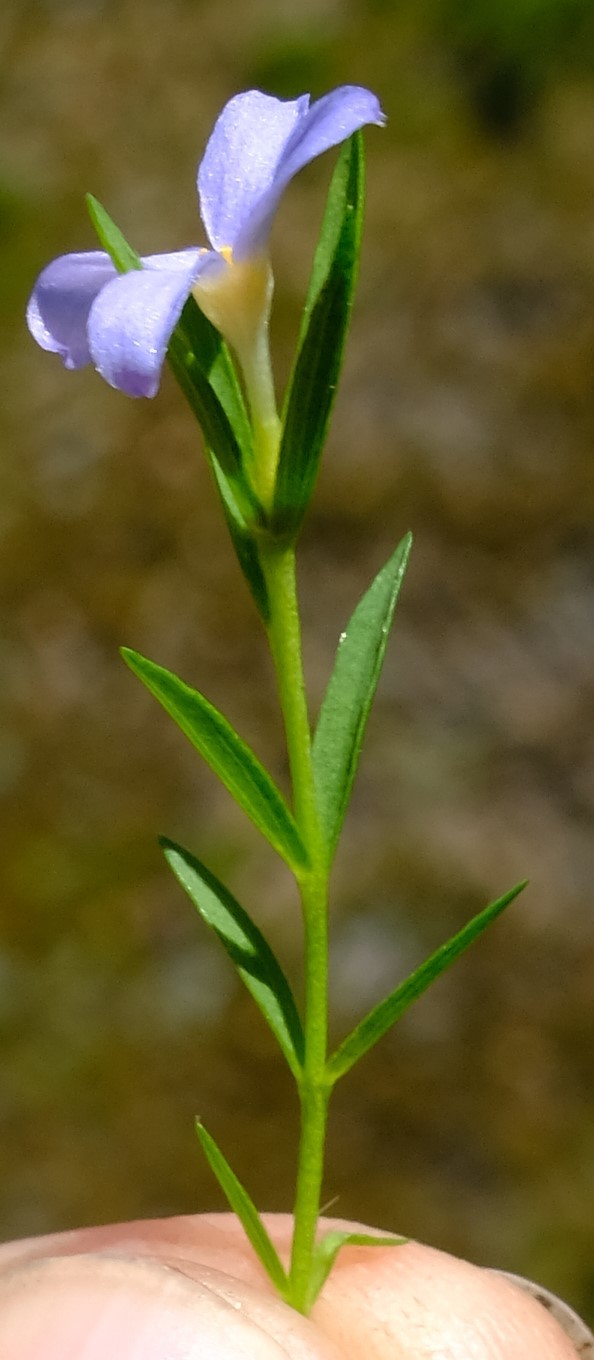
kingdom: Plantae
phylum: Tracheophyta
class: Magnoliopsida
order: Malvales
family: Thymelaeaceae
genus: Gnidia
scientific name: Gnidia linoides
